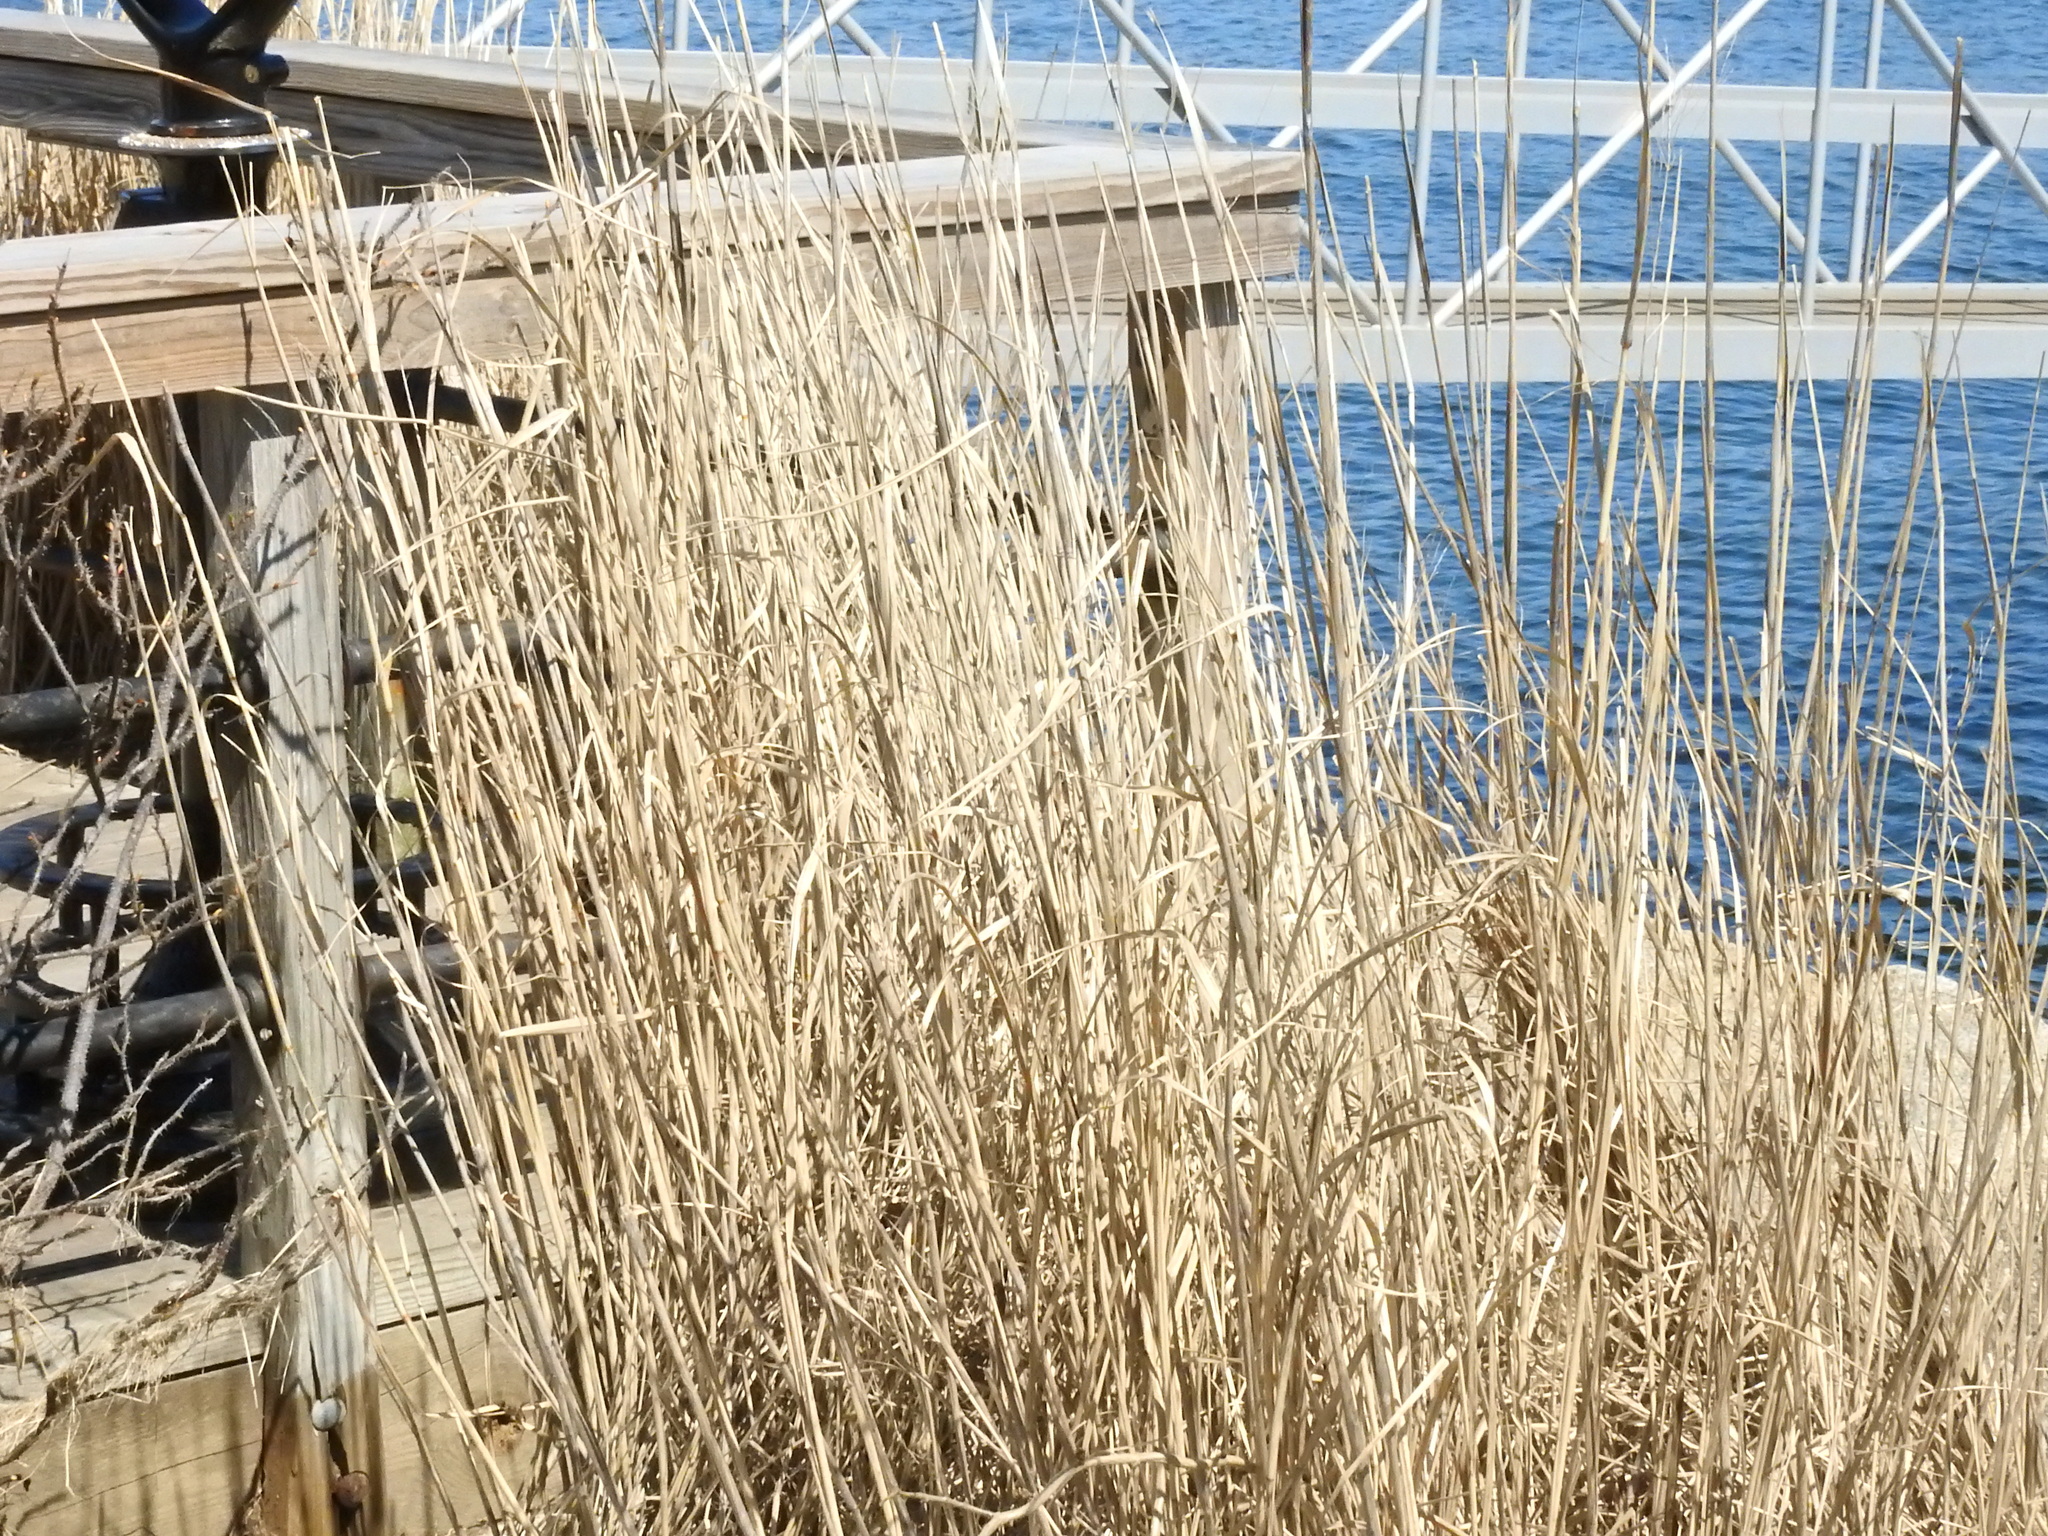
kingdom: Plantae
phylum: Tracheophyta
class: Liliopsida
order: Poales
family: Poaceae
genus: Phragmites
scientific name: Phragmites australis
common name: Common reed
